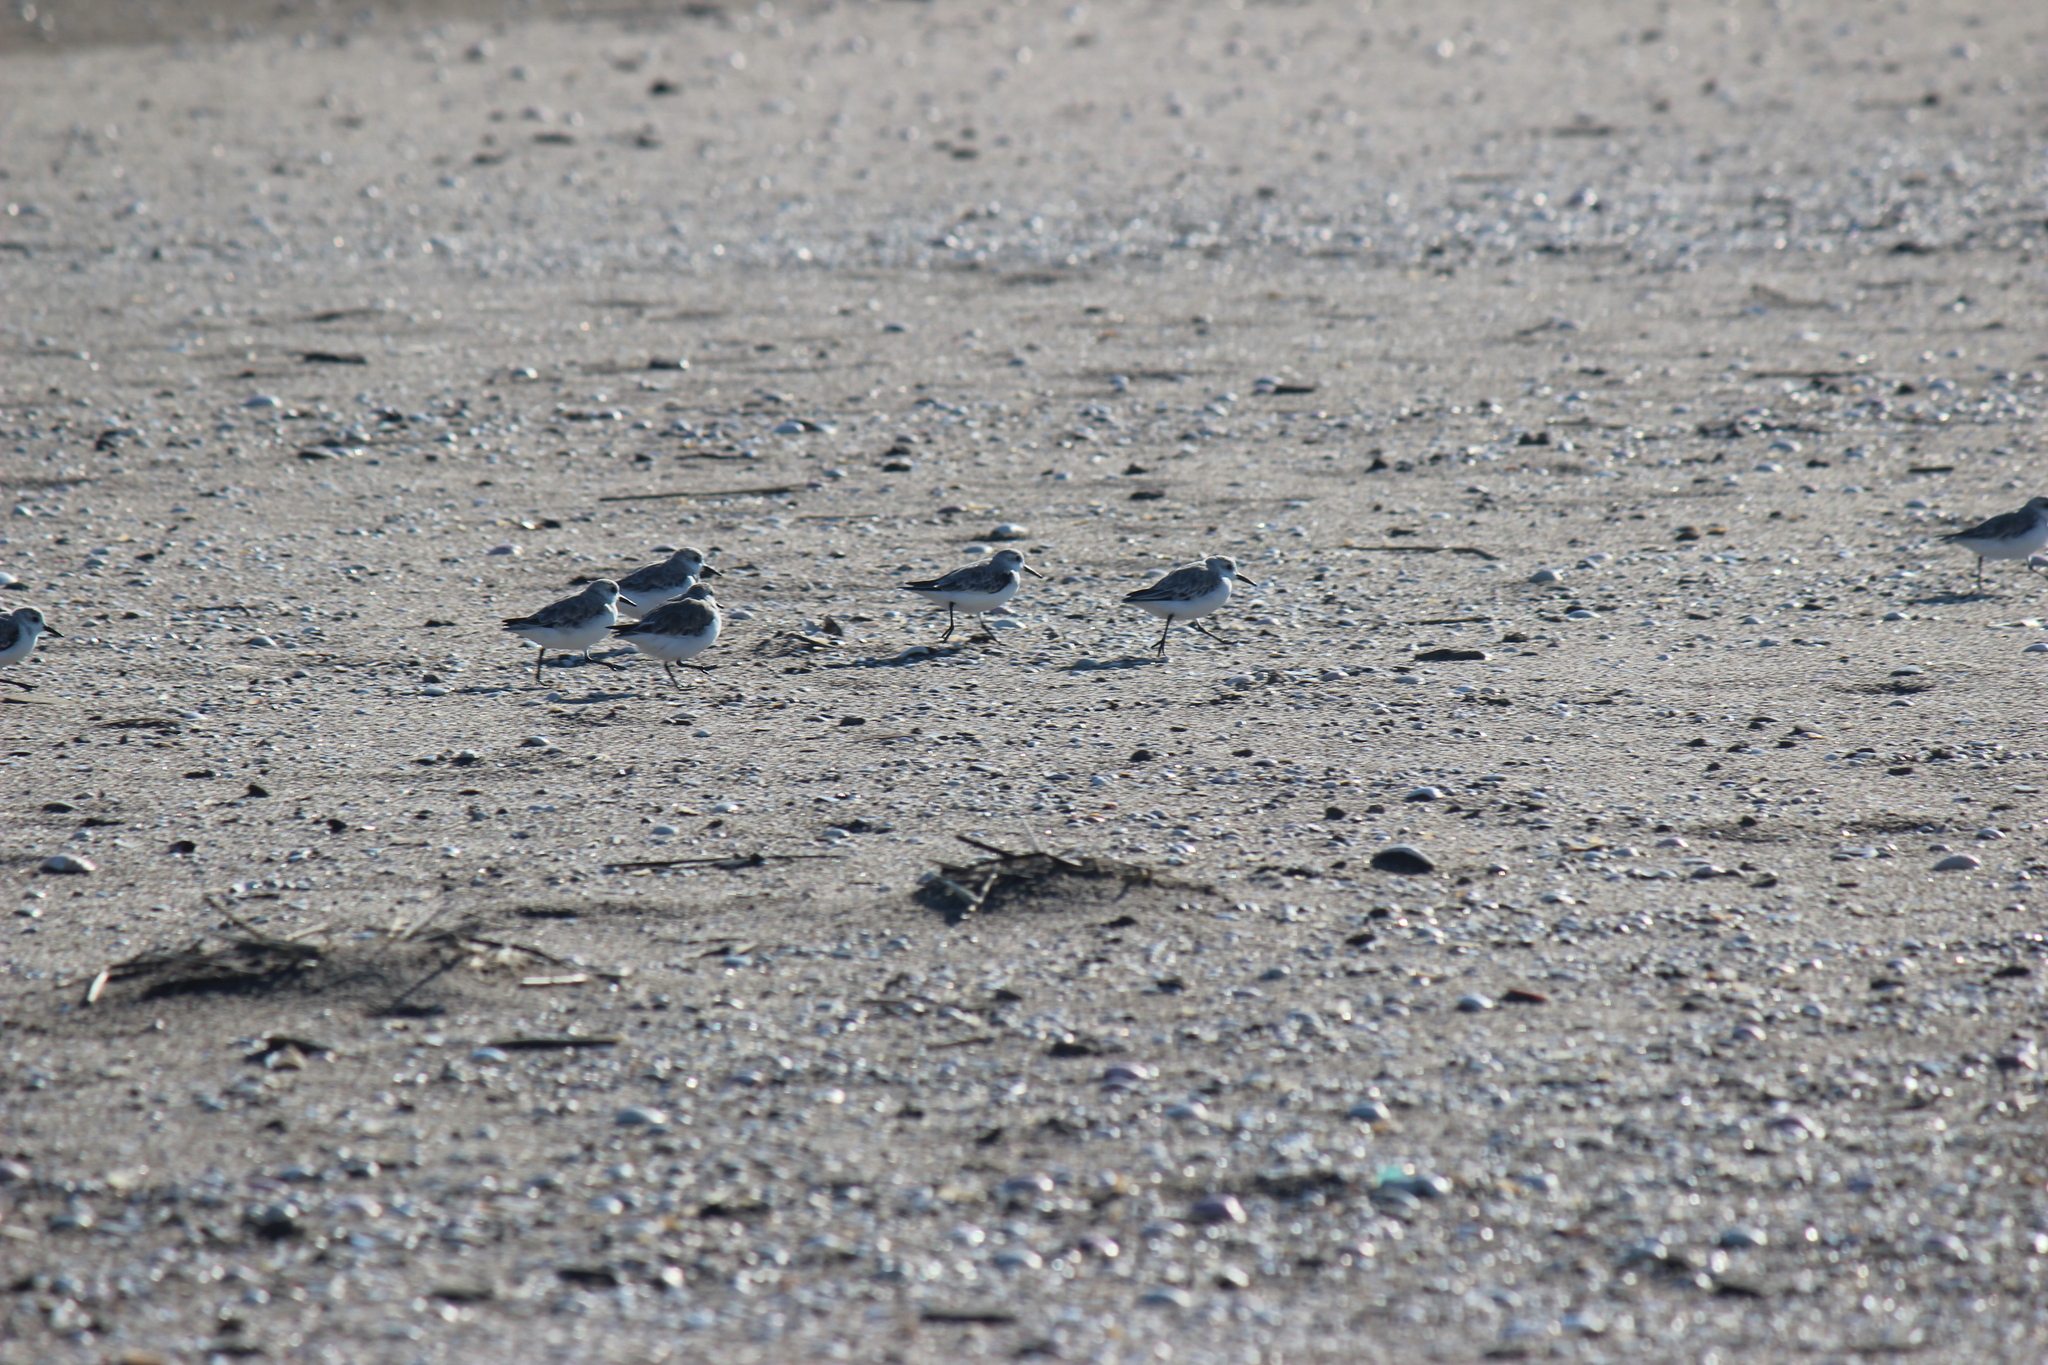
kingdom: Animalia
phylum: Chordata
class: Aves
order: Charadriiformes
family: Scolopacidae
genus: Calidris
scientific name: Calidris alba
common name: Sanderling
